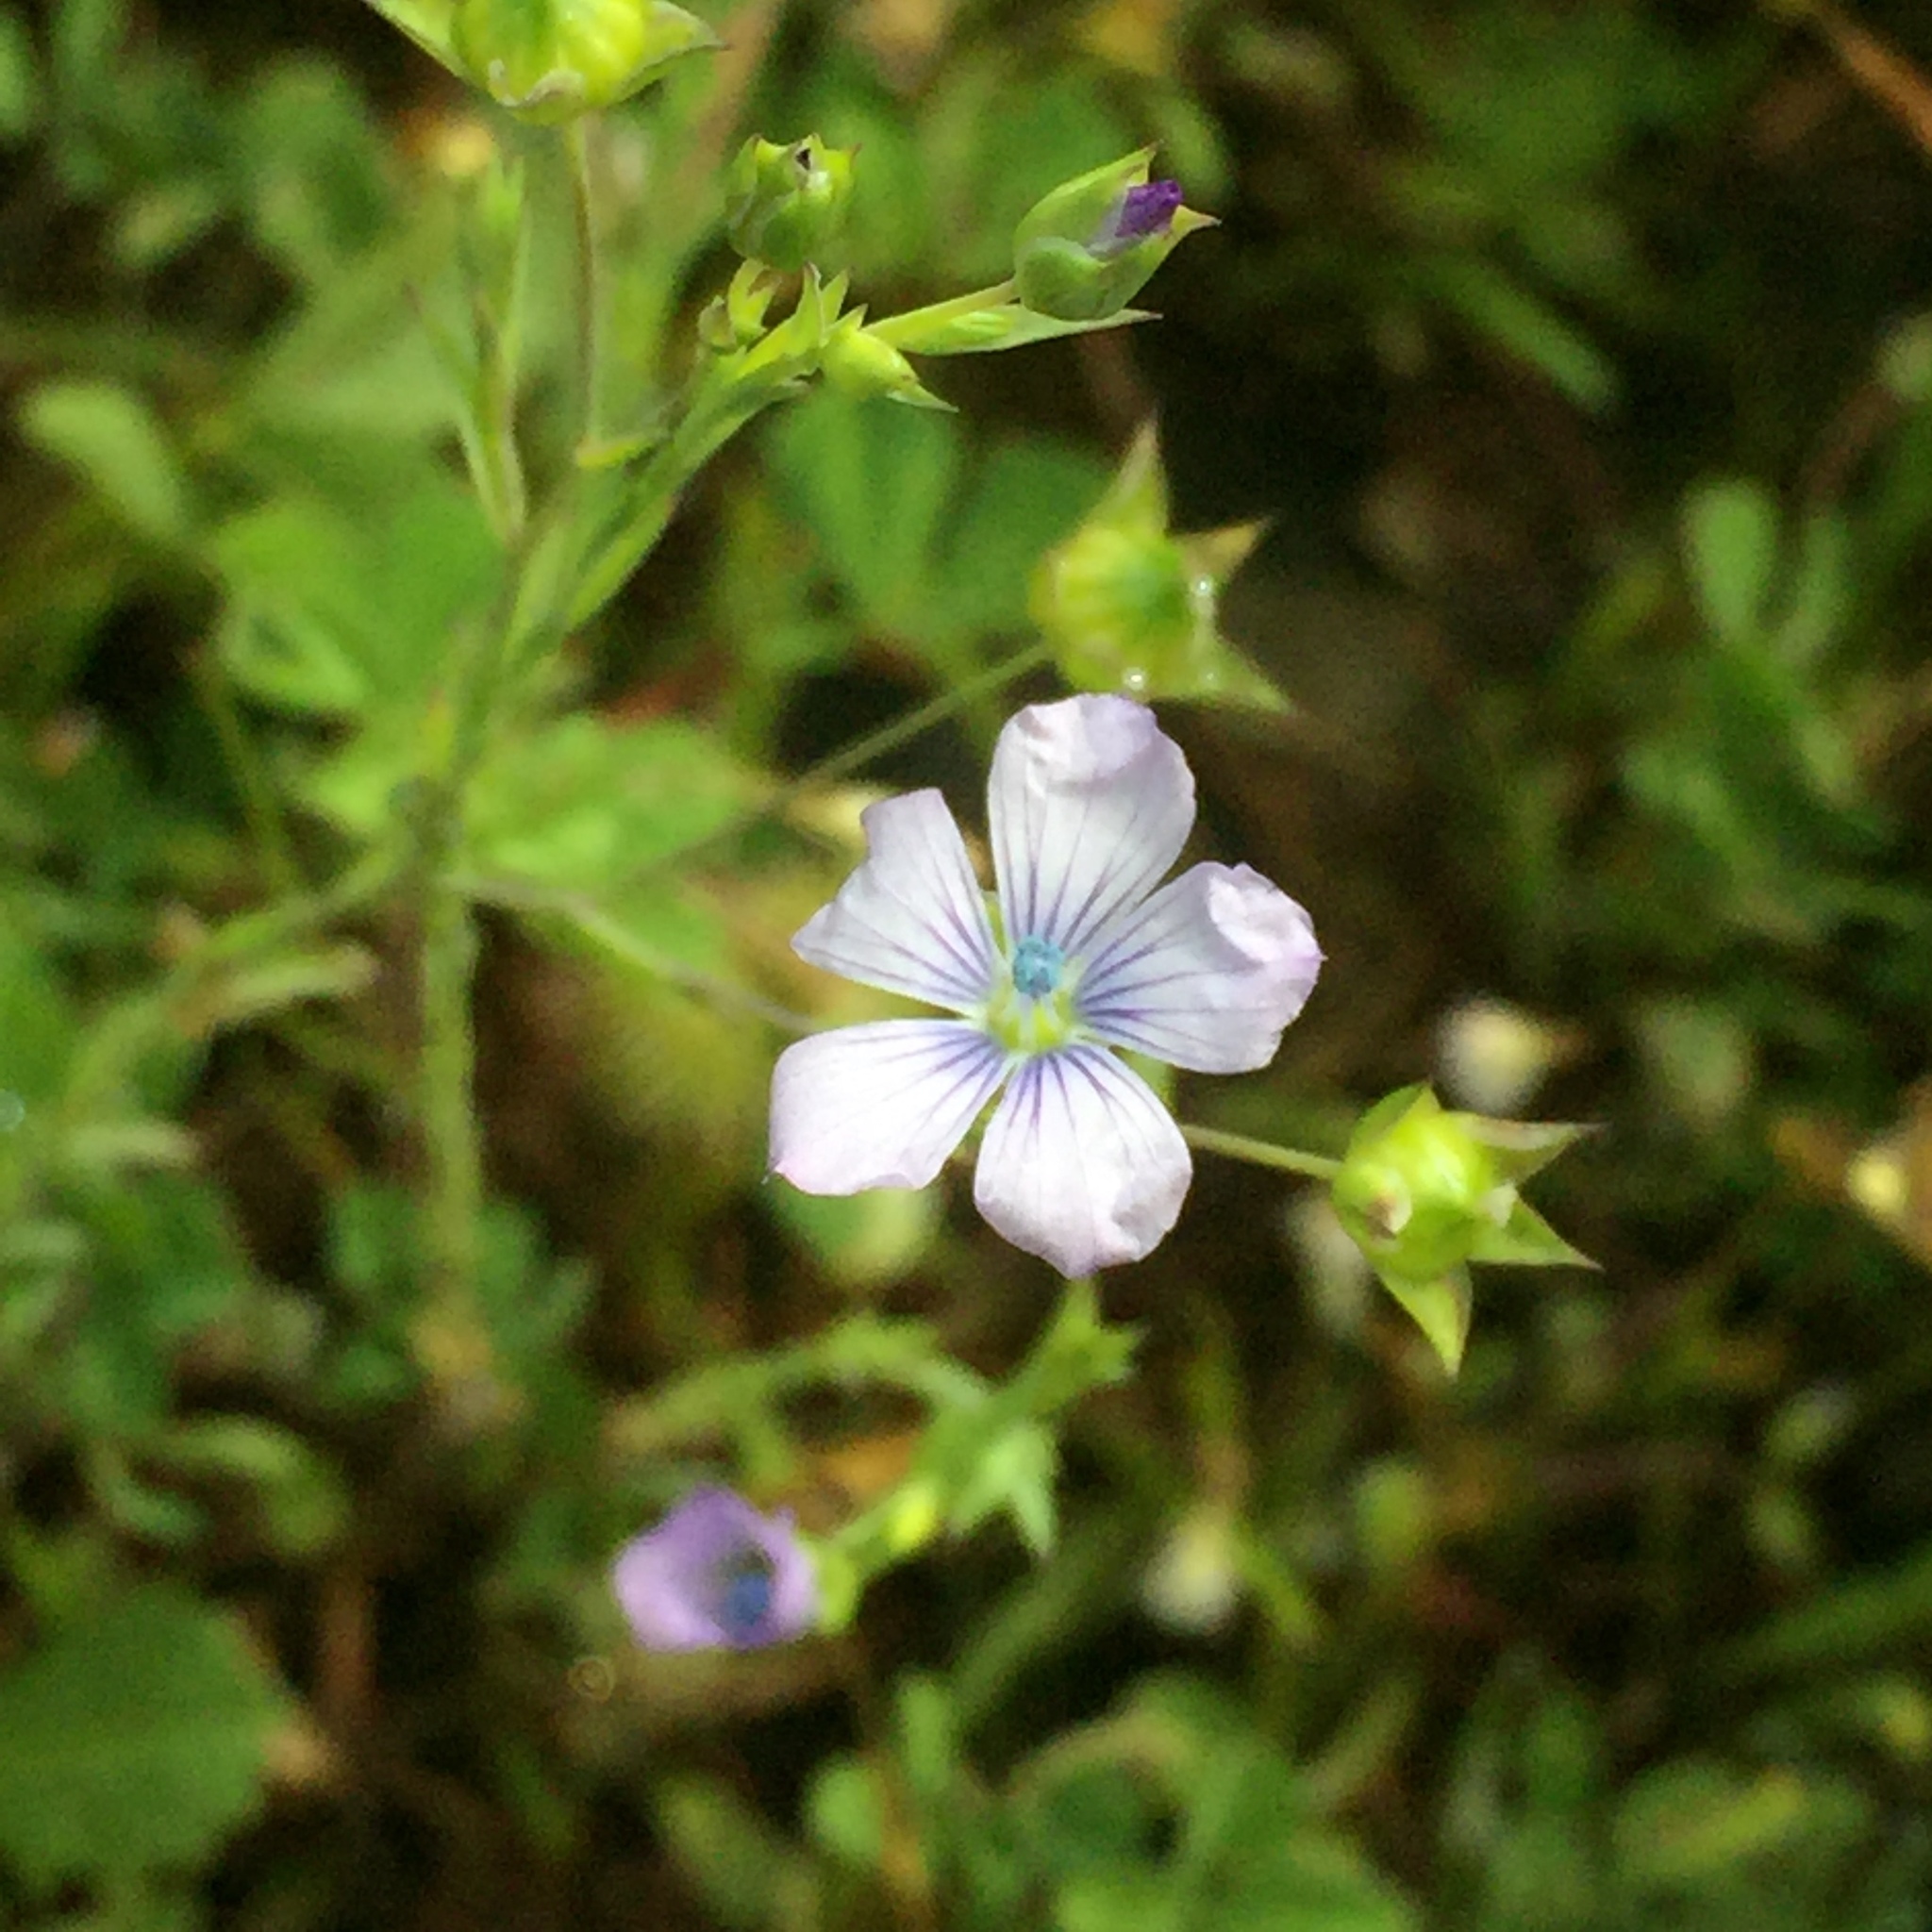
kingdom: Plantae
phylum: Tracheophyta
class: Magnoliopsida
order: Malpighiales
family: Linaceae
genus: Linum
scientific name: Linum bienne
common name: Pale flax
